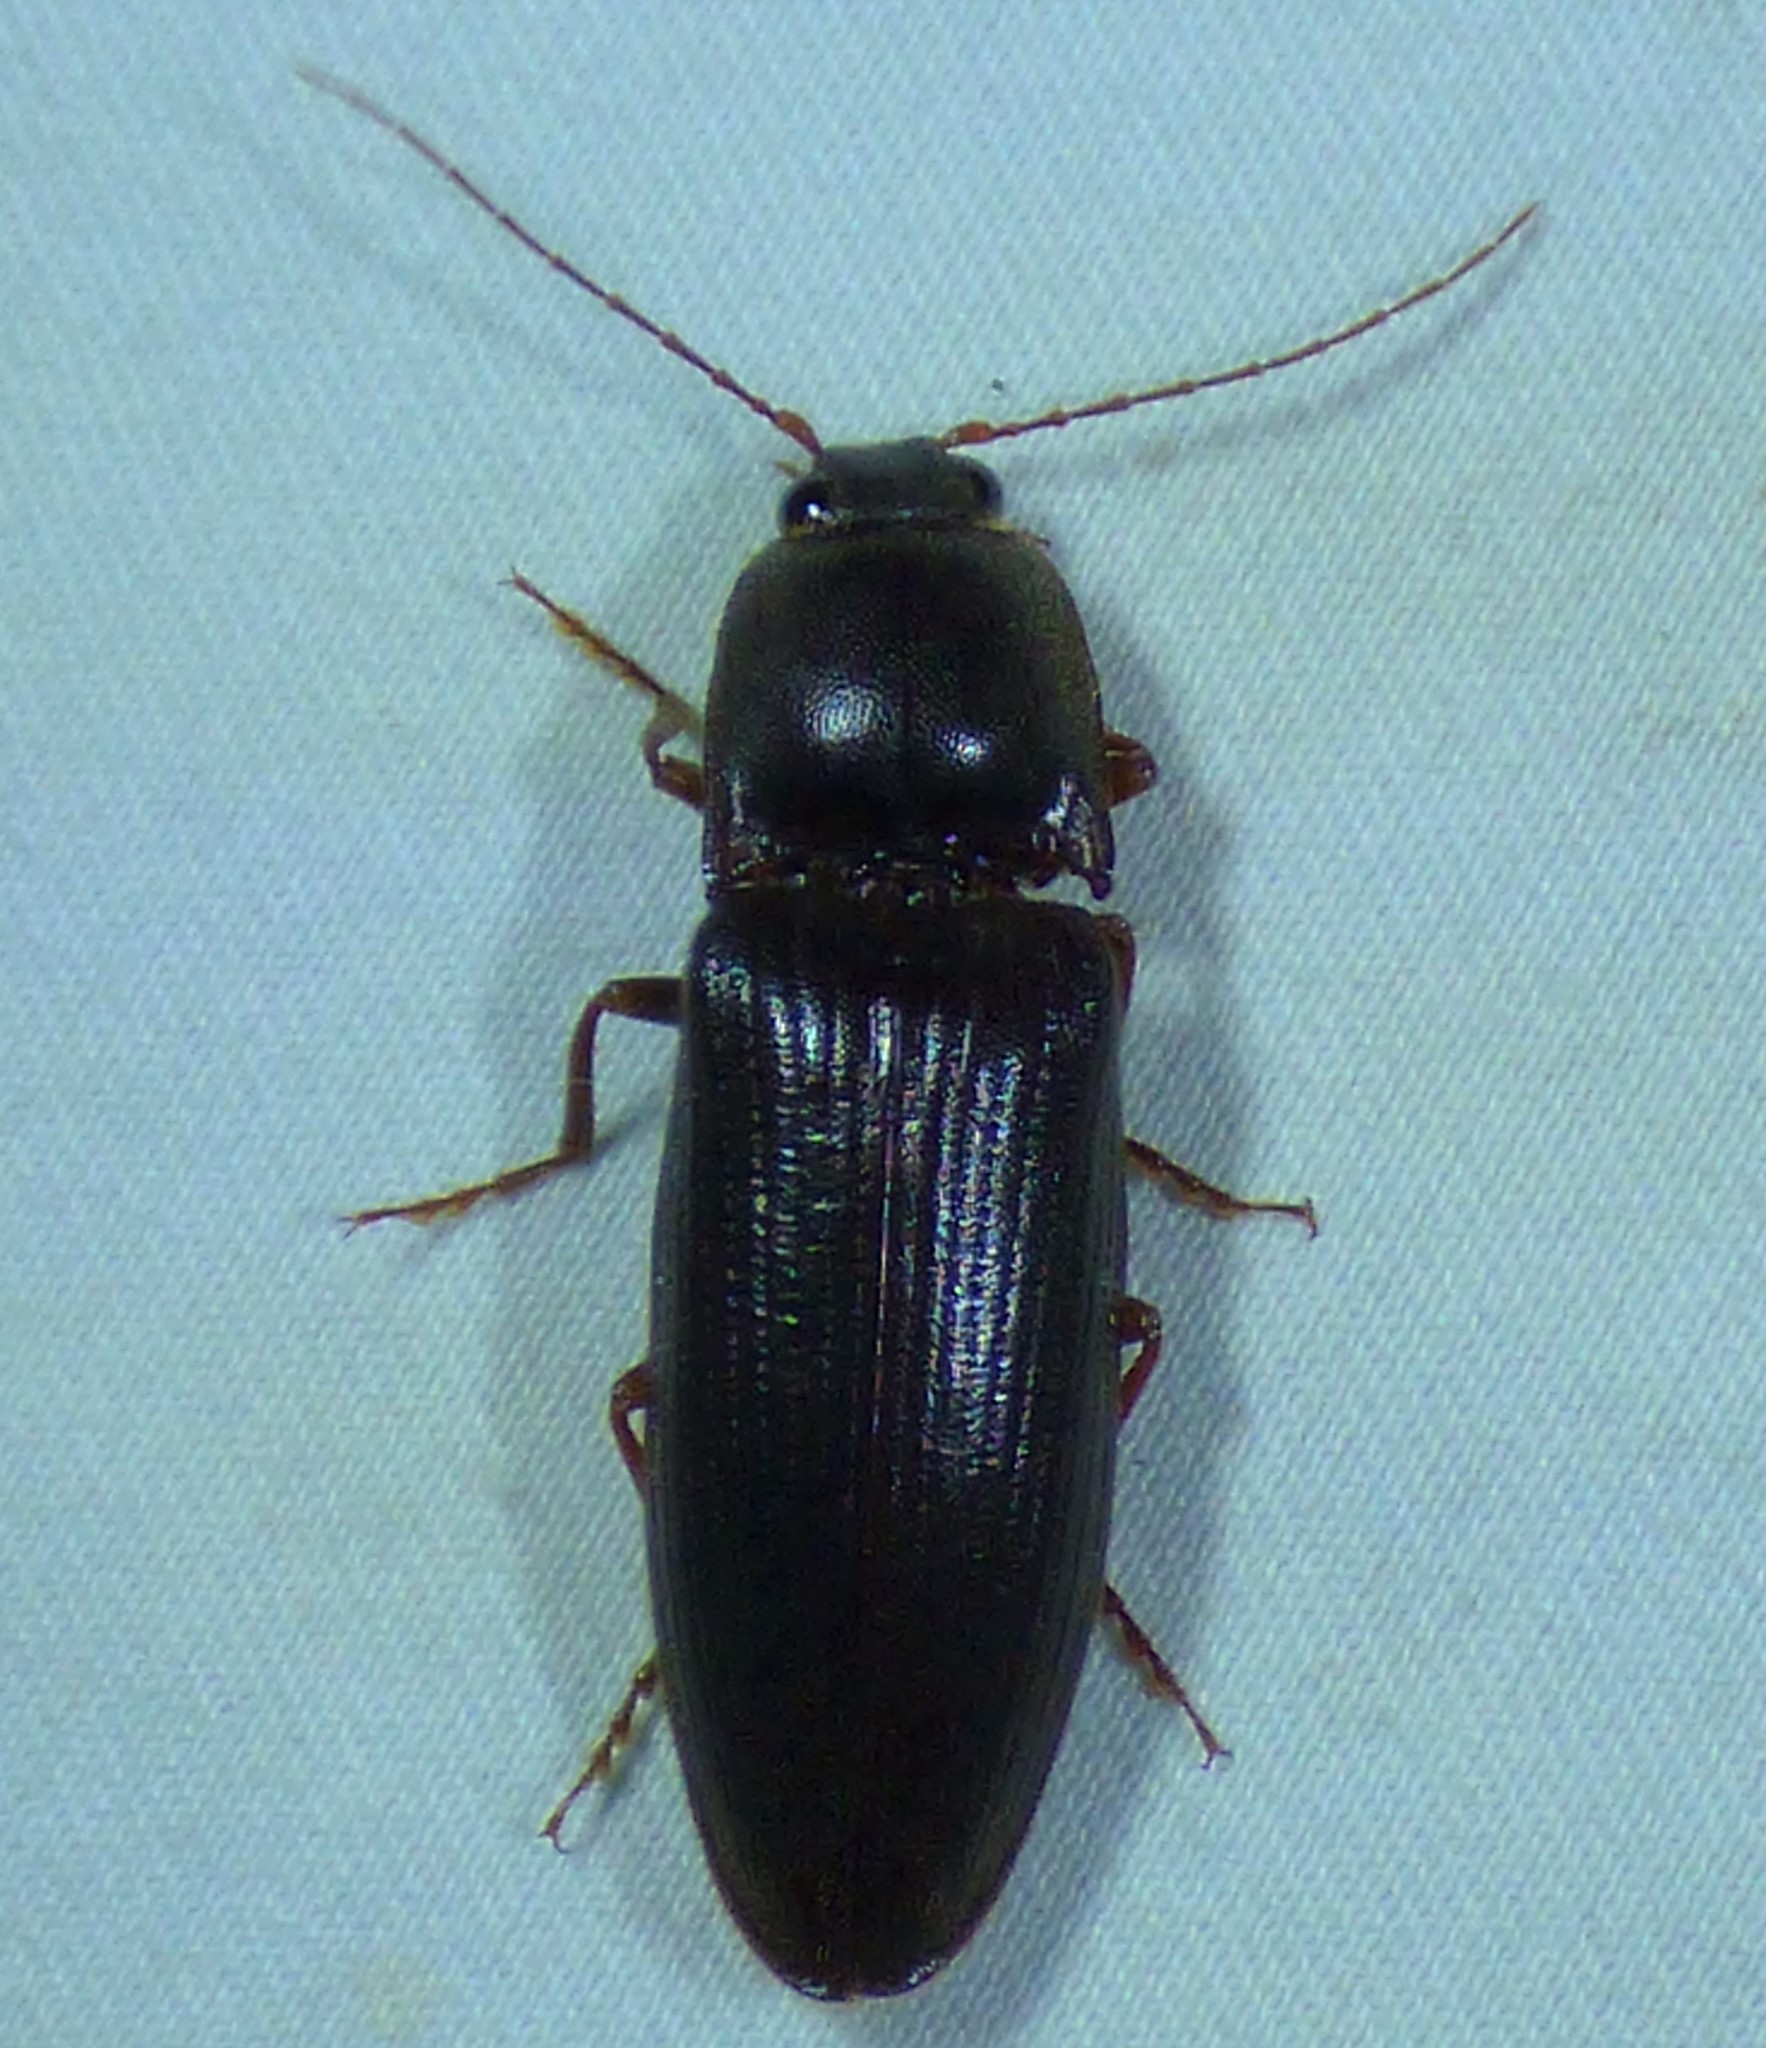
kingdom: Animalia
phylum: Arthropoda
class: Insecta
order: Coleoptera
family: Elateridae
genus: Hemicrepidius
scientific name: Hemicrepidius
